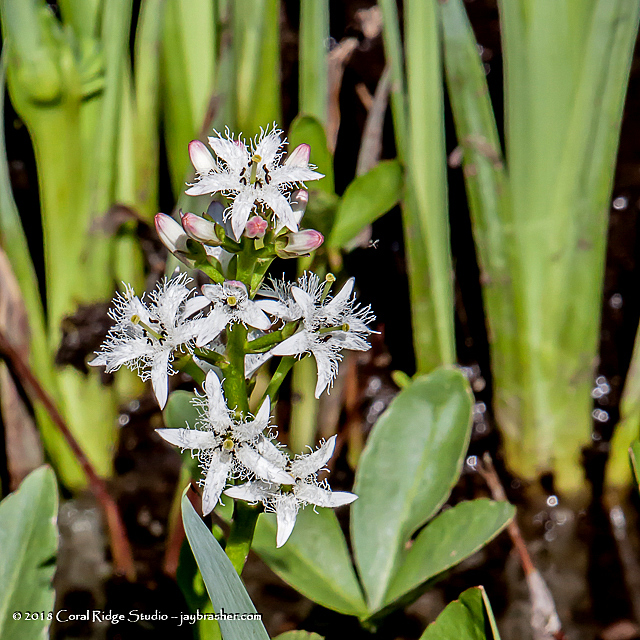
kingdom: Plantae
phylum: Tracheophyta
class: Magnoliopsida
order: Asterales
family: Menyanthaceae
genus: Menyanthes
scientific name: Menyanthes trifoliata
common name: Bogbean
